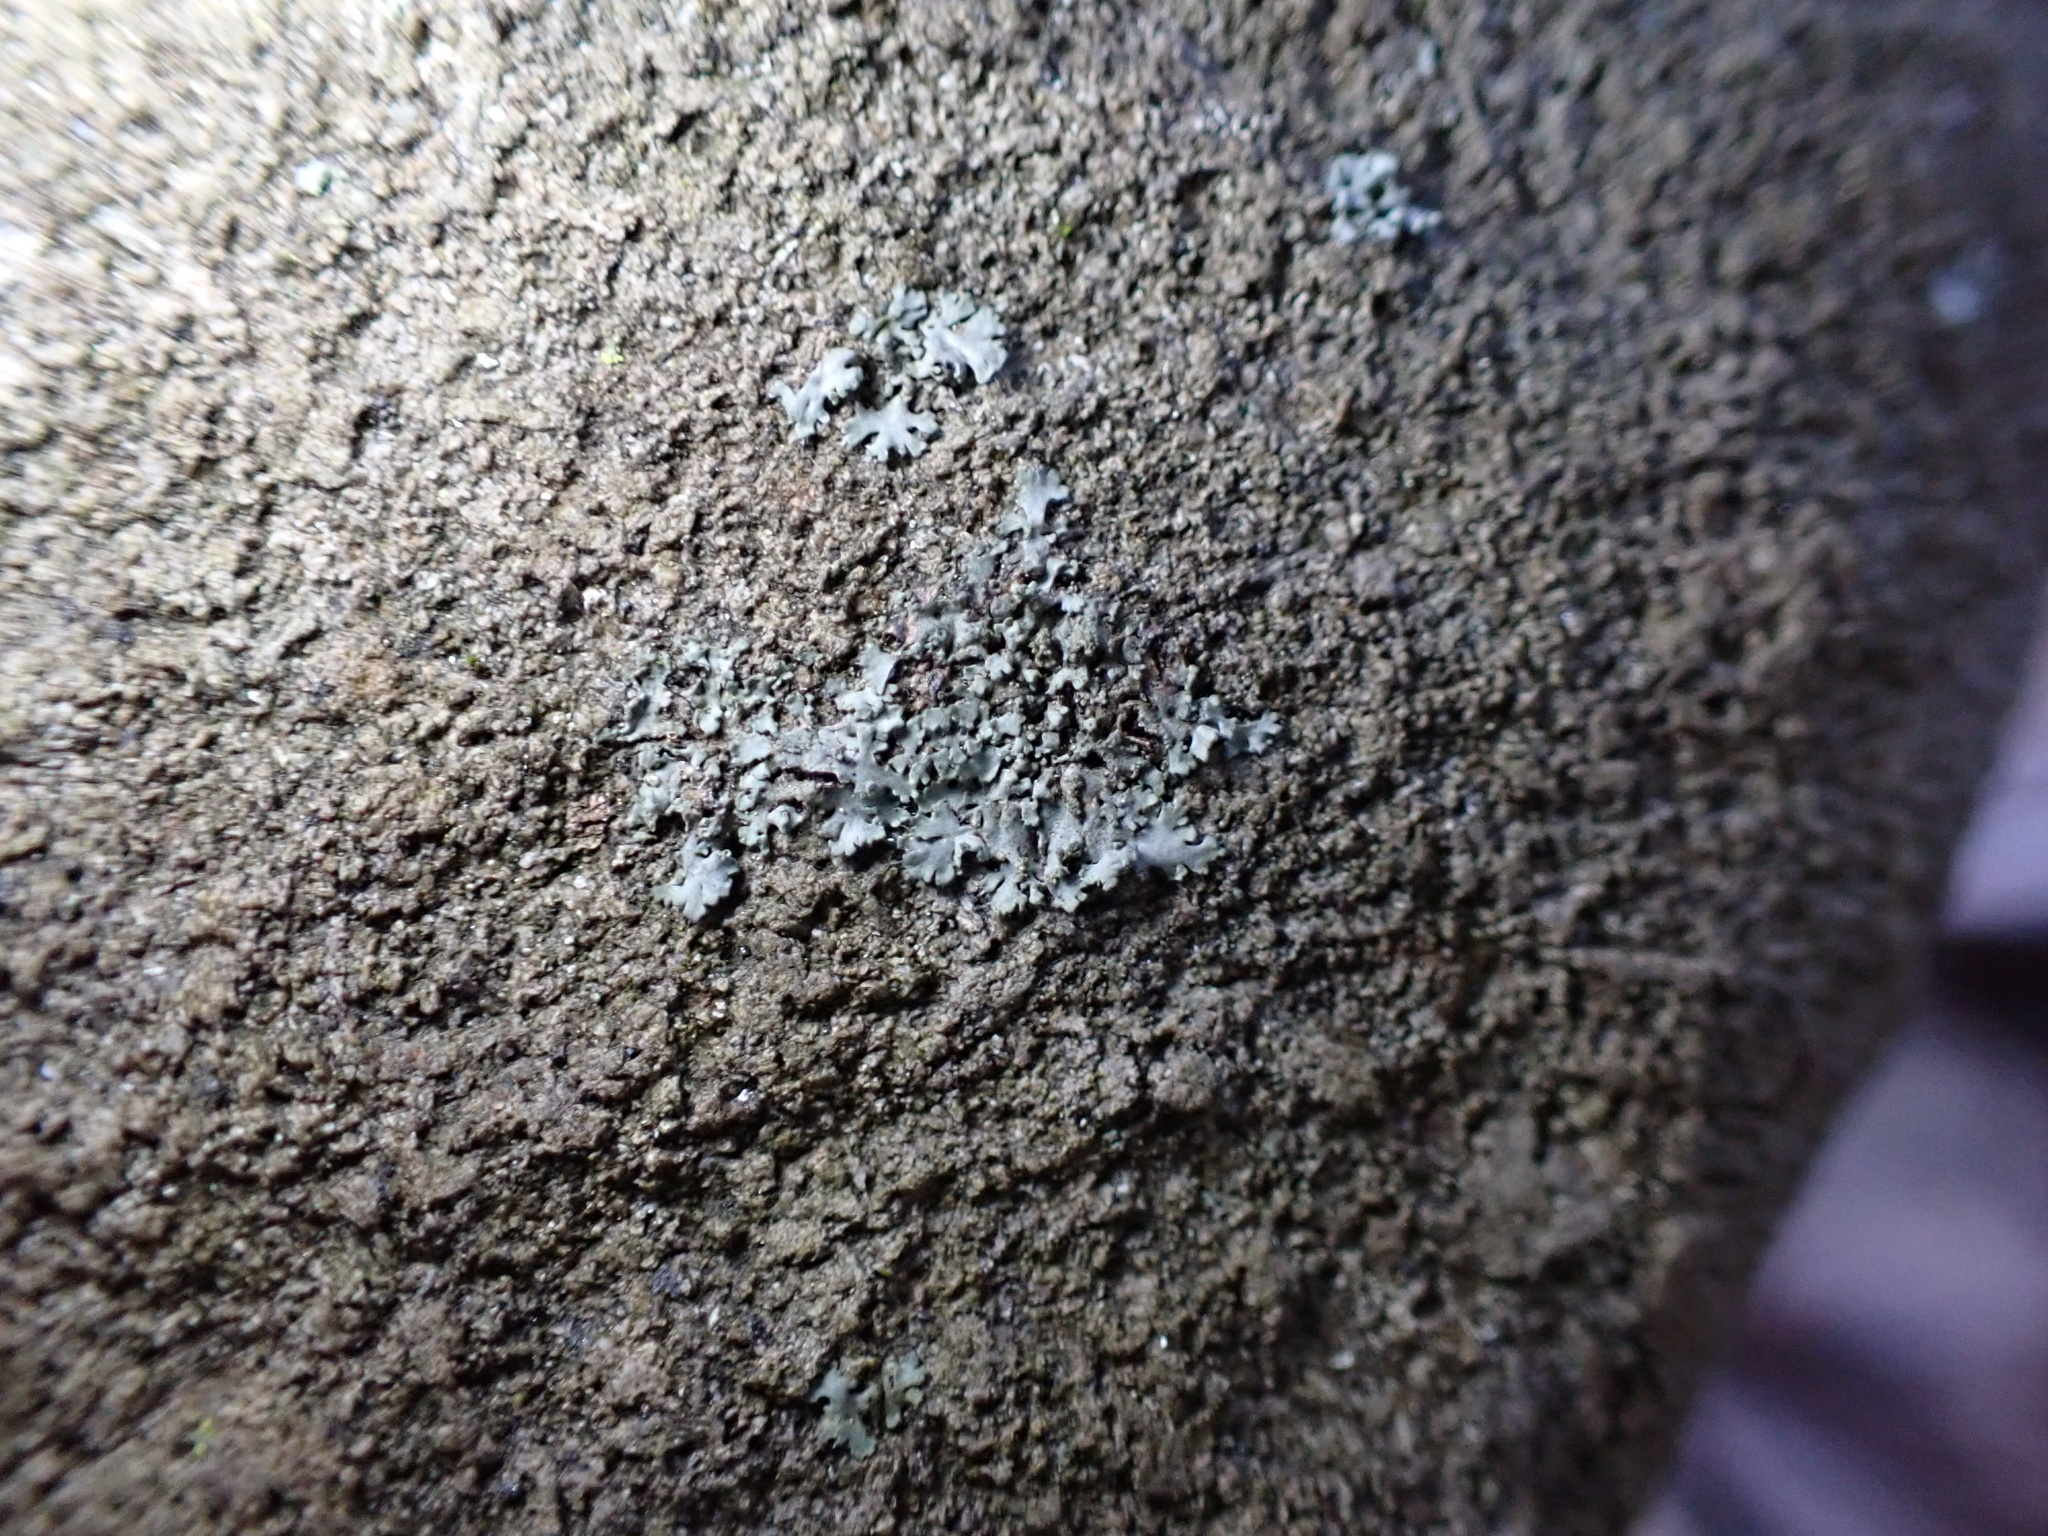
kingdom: Fungi
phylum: Ascomycota
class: Lecanoromycetes
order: Caliciales
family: Physciaceae
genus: Physcia
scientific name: Physcia stellaris
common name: Star rosette lichen
